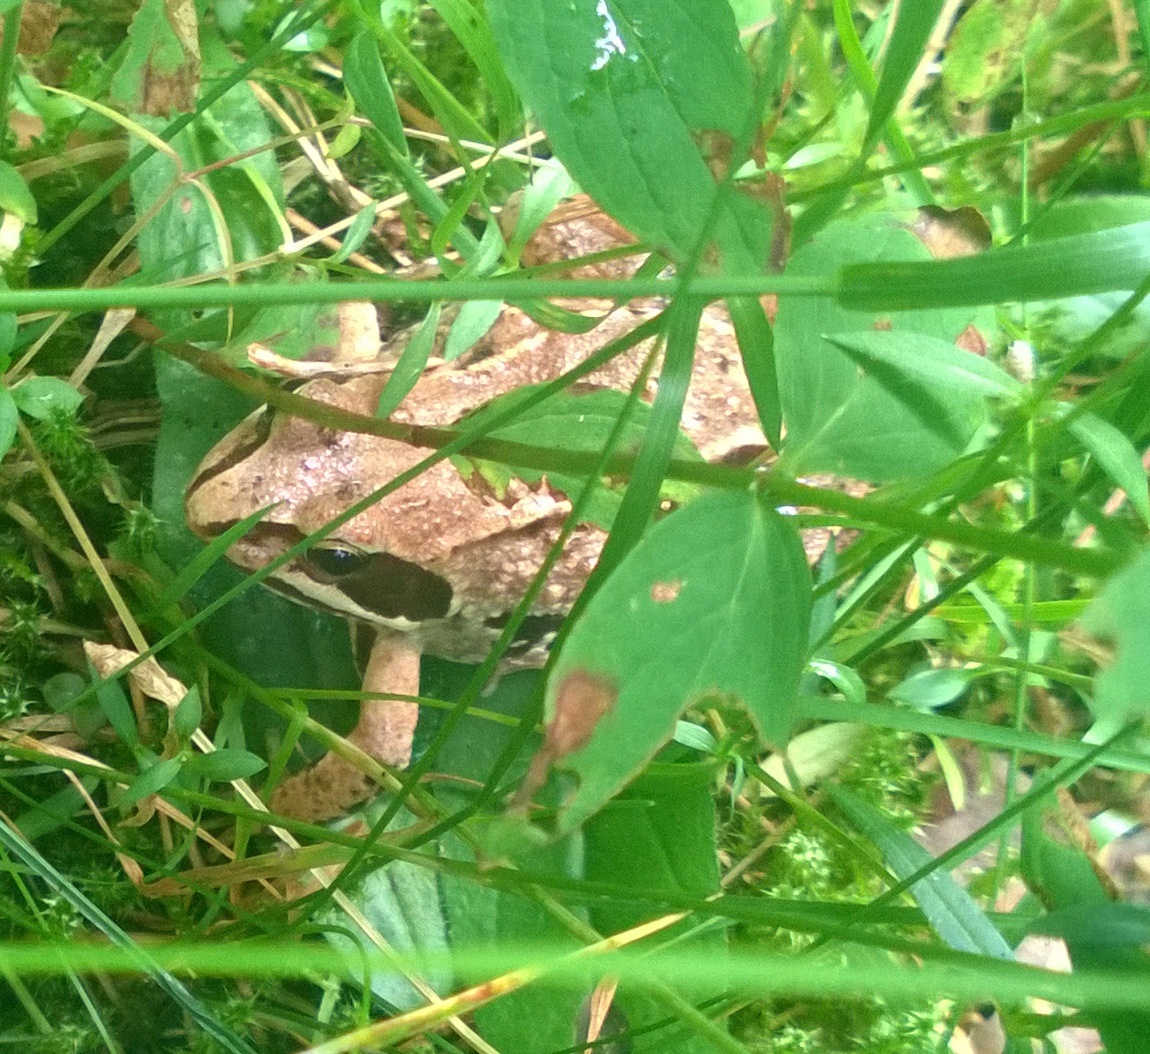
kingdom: Animalia
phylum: Chordata
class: Amphibia
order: Anura
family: Ranidae
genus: Rana
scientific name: Rana arvalis
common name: Moor frog
